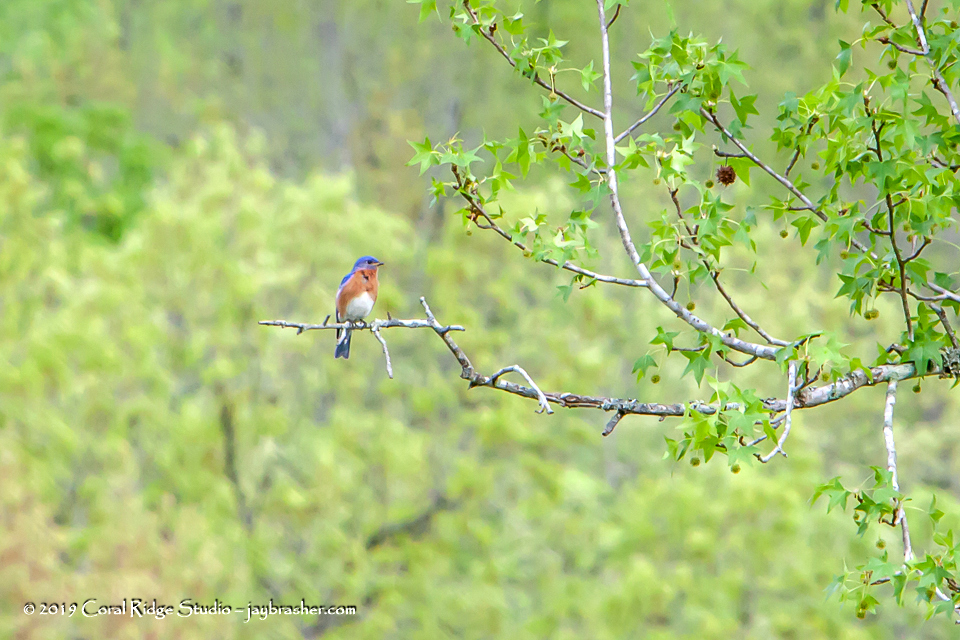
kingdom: Animalia
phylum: Chordata
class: Aves
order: Passeriformes
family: Turdidae
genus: Sialia
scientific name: Sialia sialis
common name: Eastern bluebird
